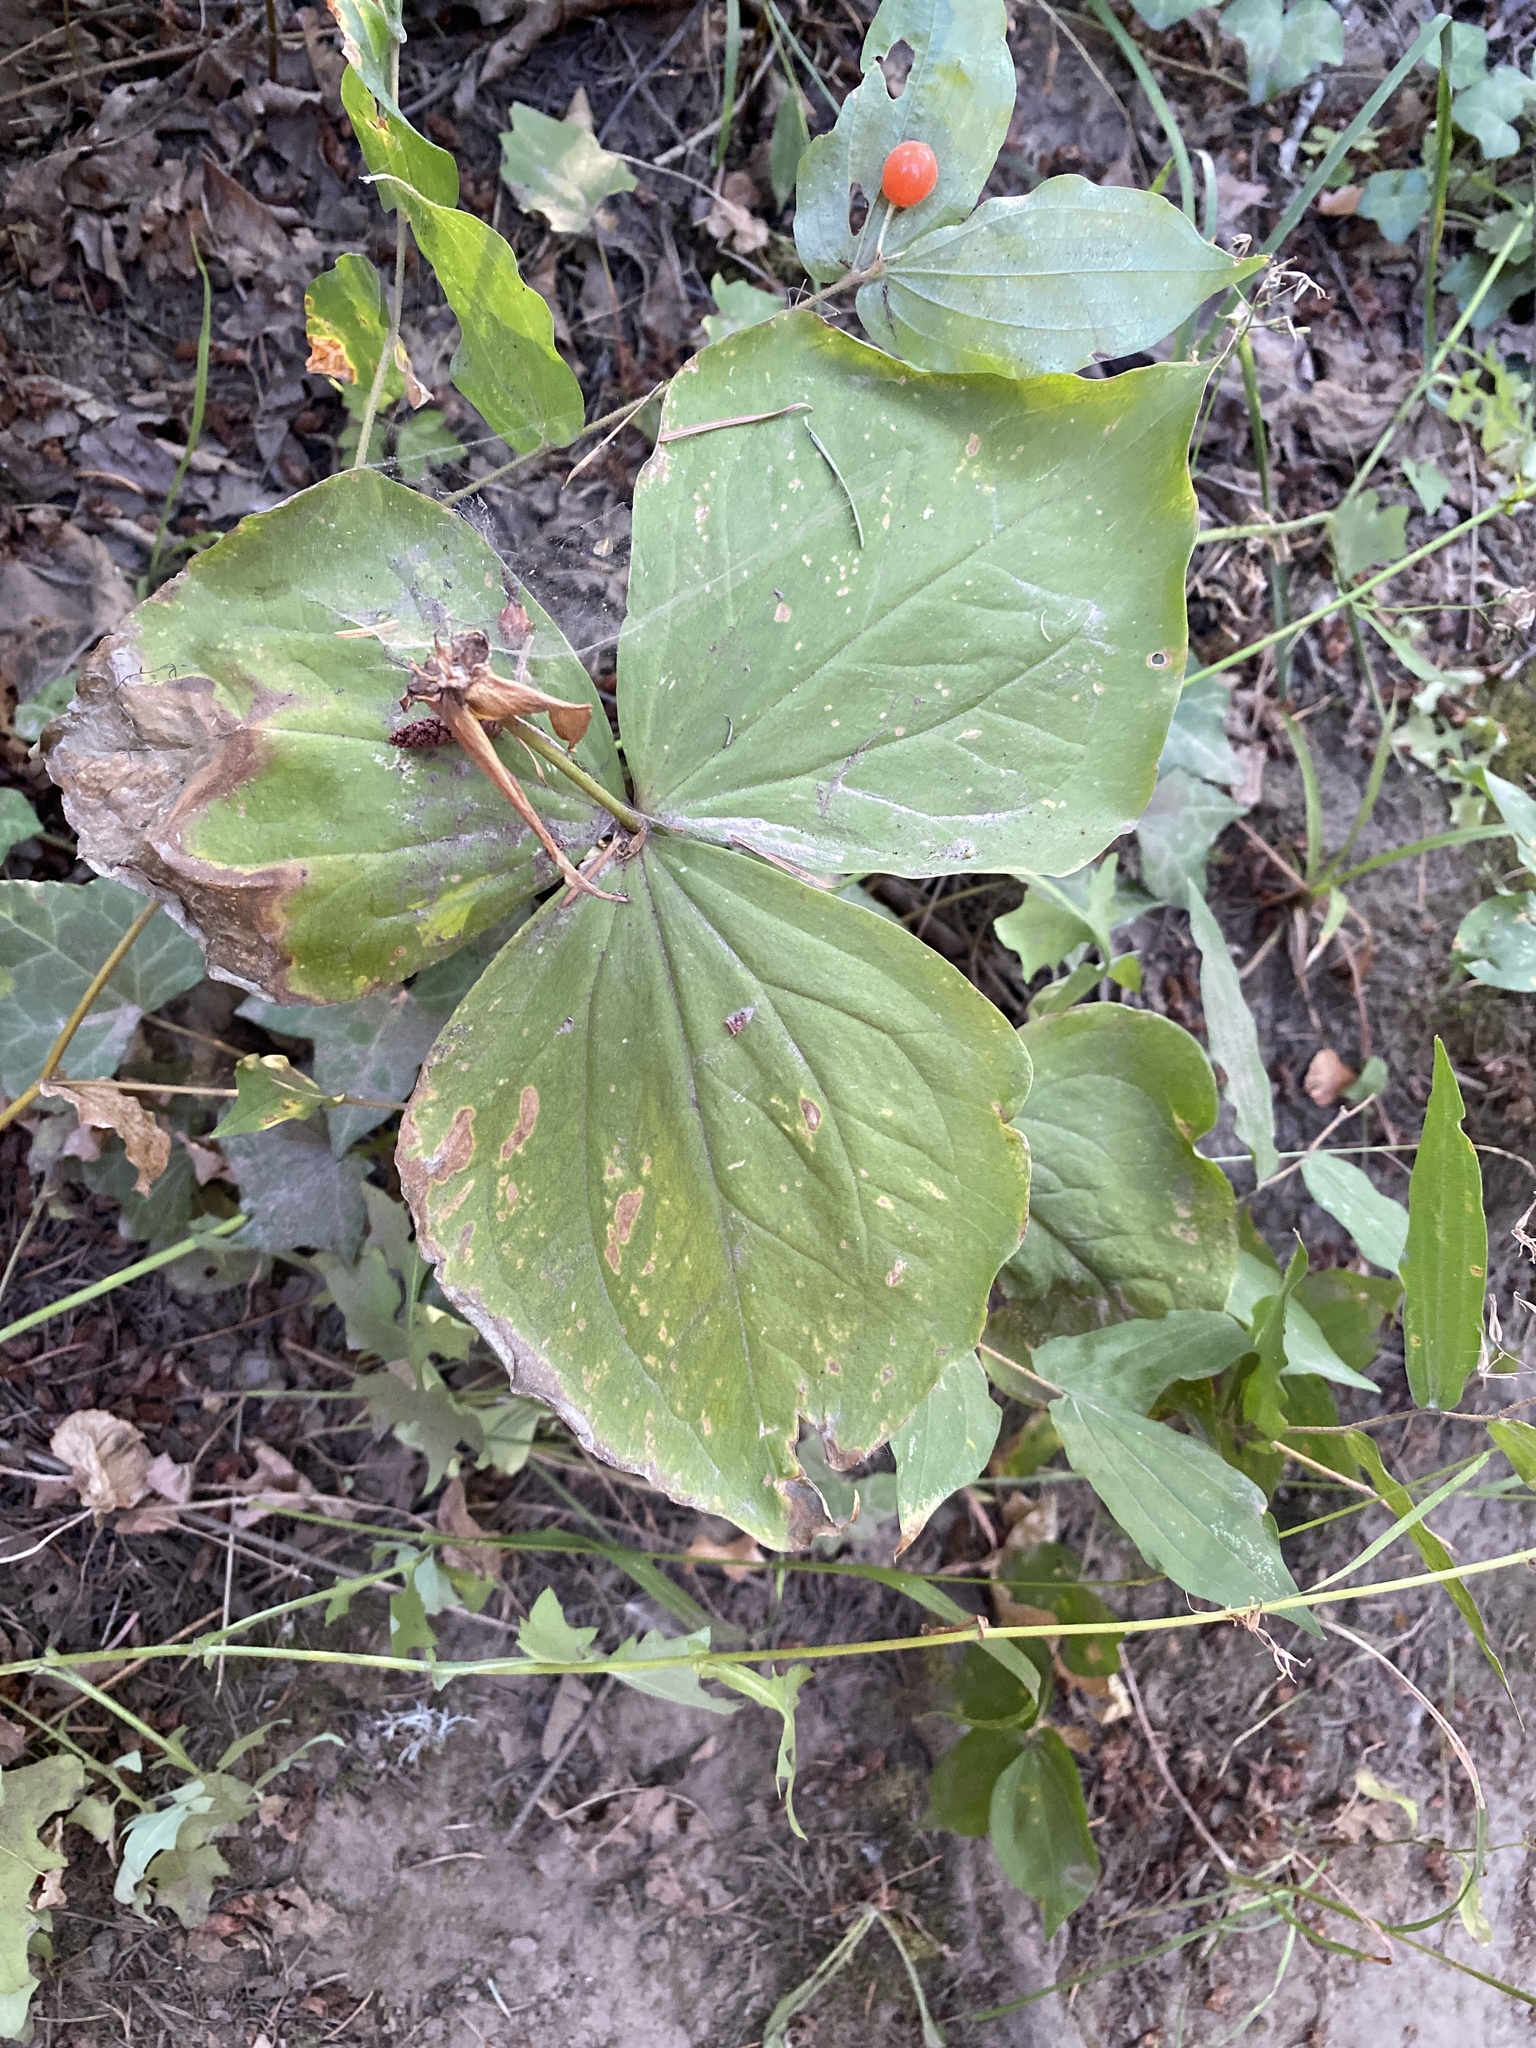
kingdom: Plantae
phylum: Tracheophyta
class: Liliopsida
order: Liliales
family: Melanthiaceae
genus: Trillium
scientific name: Trillium ovatum
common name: Pacific trillium
